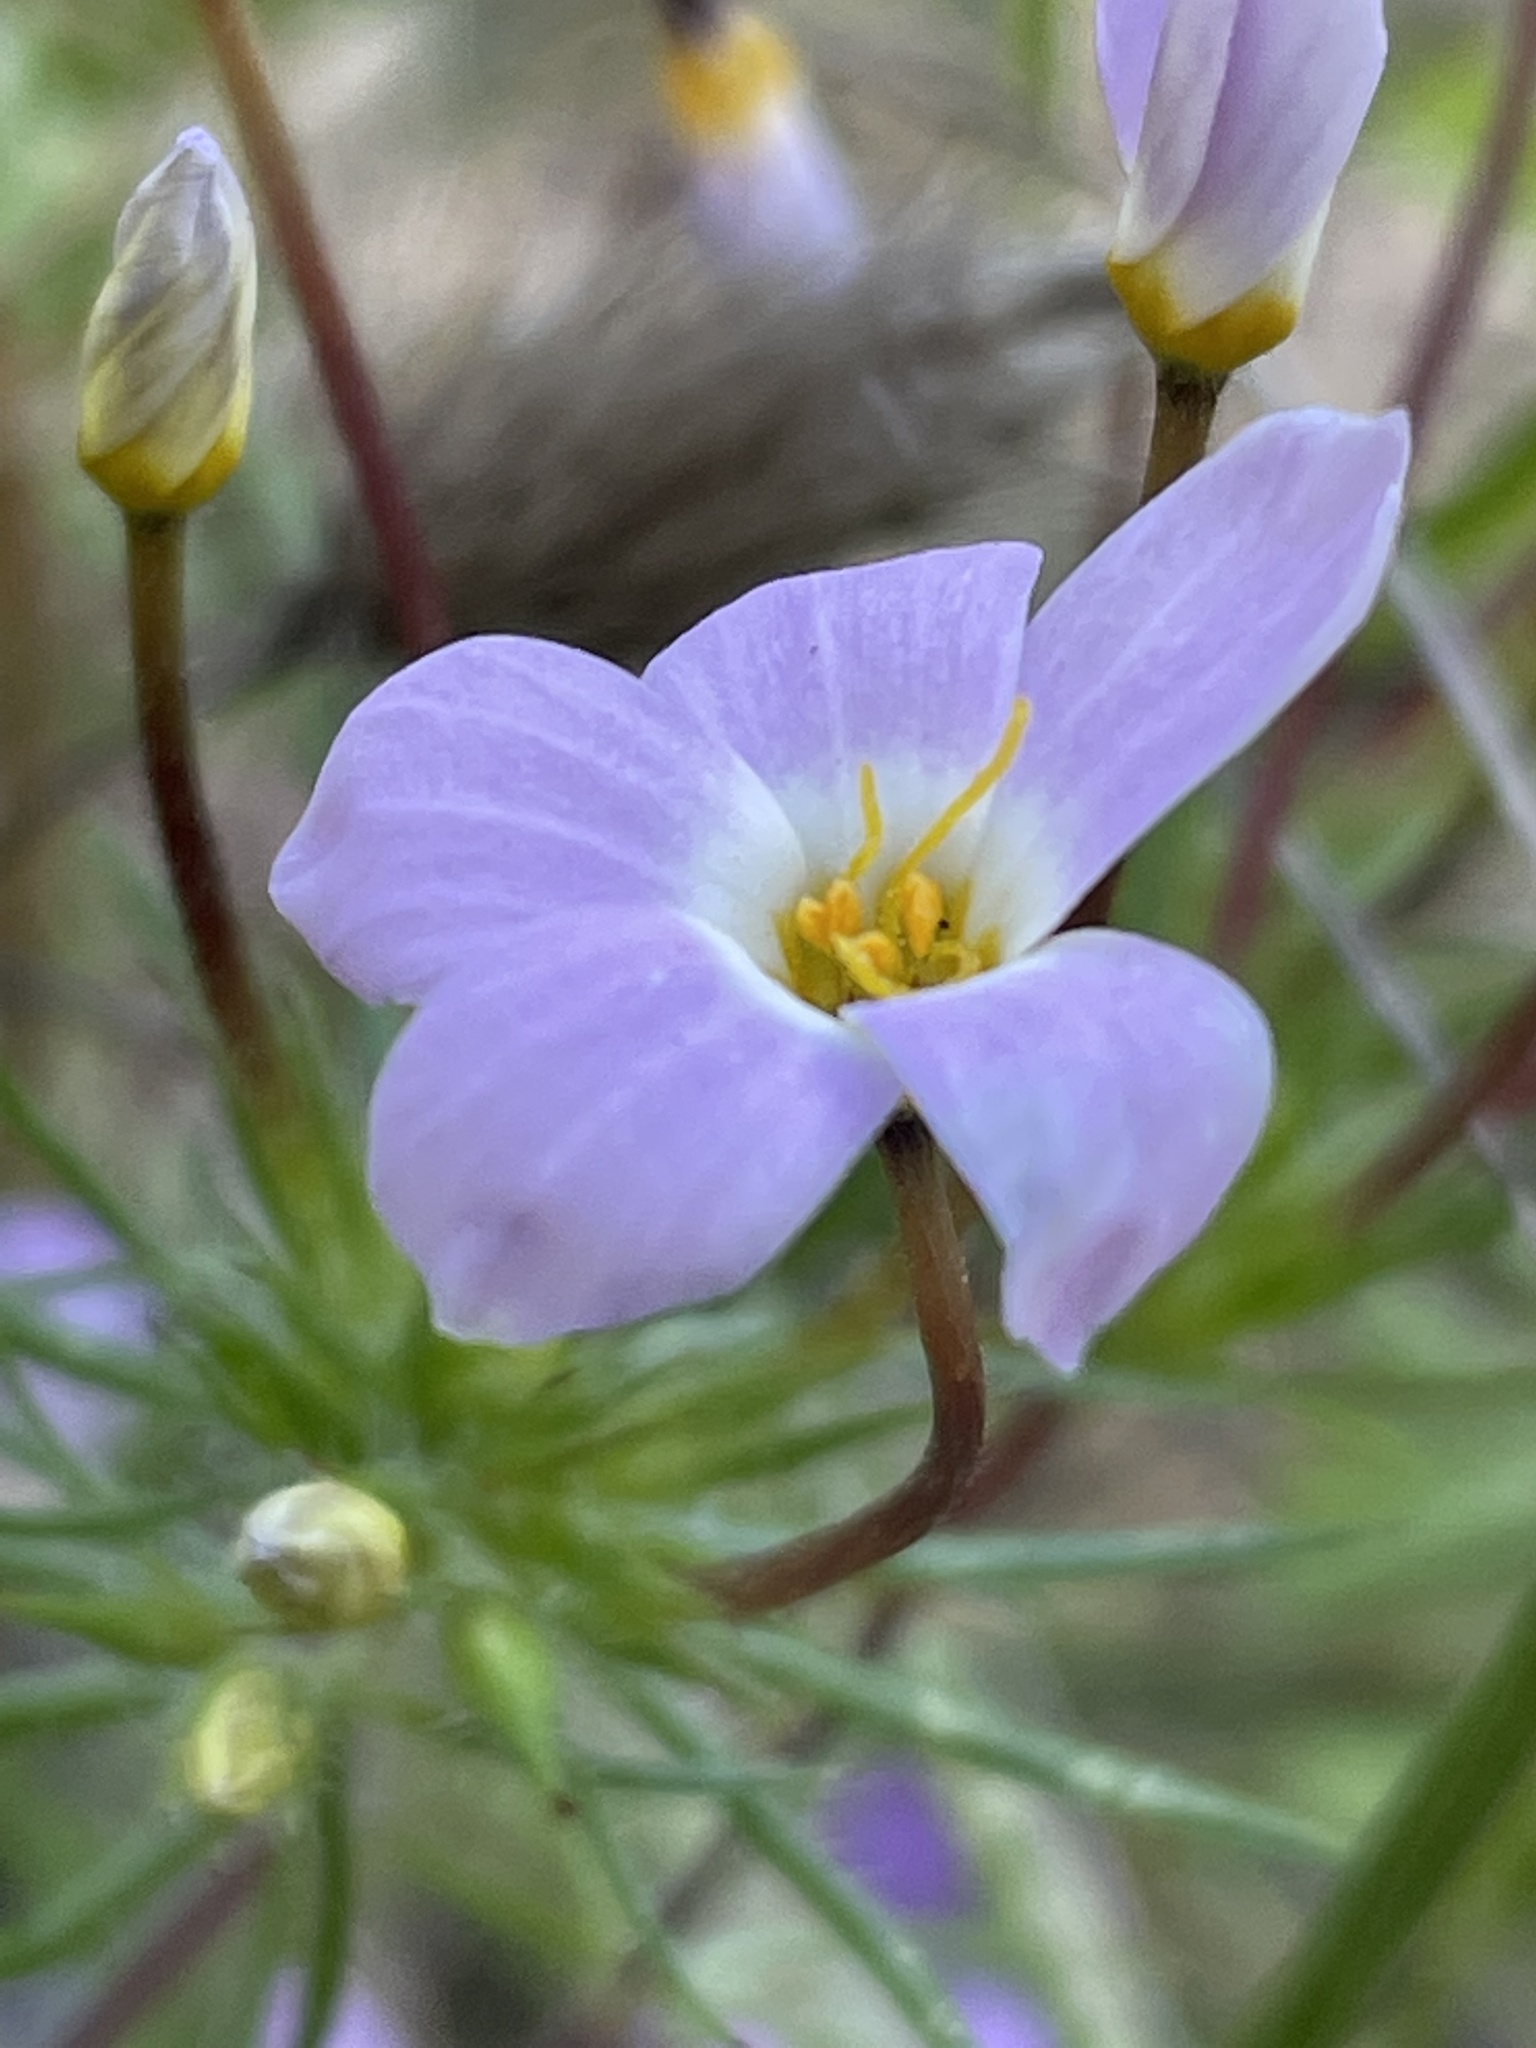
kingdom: Plantae
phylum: Tracheophyta
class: Magnoliopsida
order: Ericales
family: Polemoniaceae
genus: Leptosiphon
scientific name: Leptosiphon androsaceus
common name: False babystars
